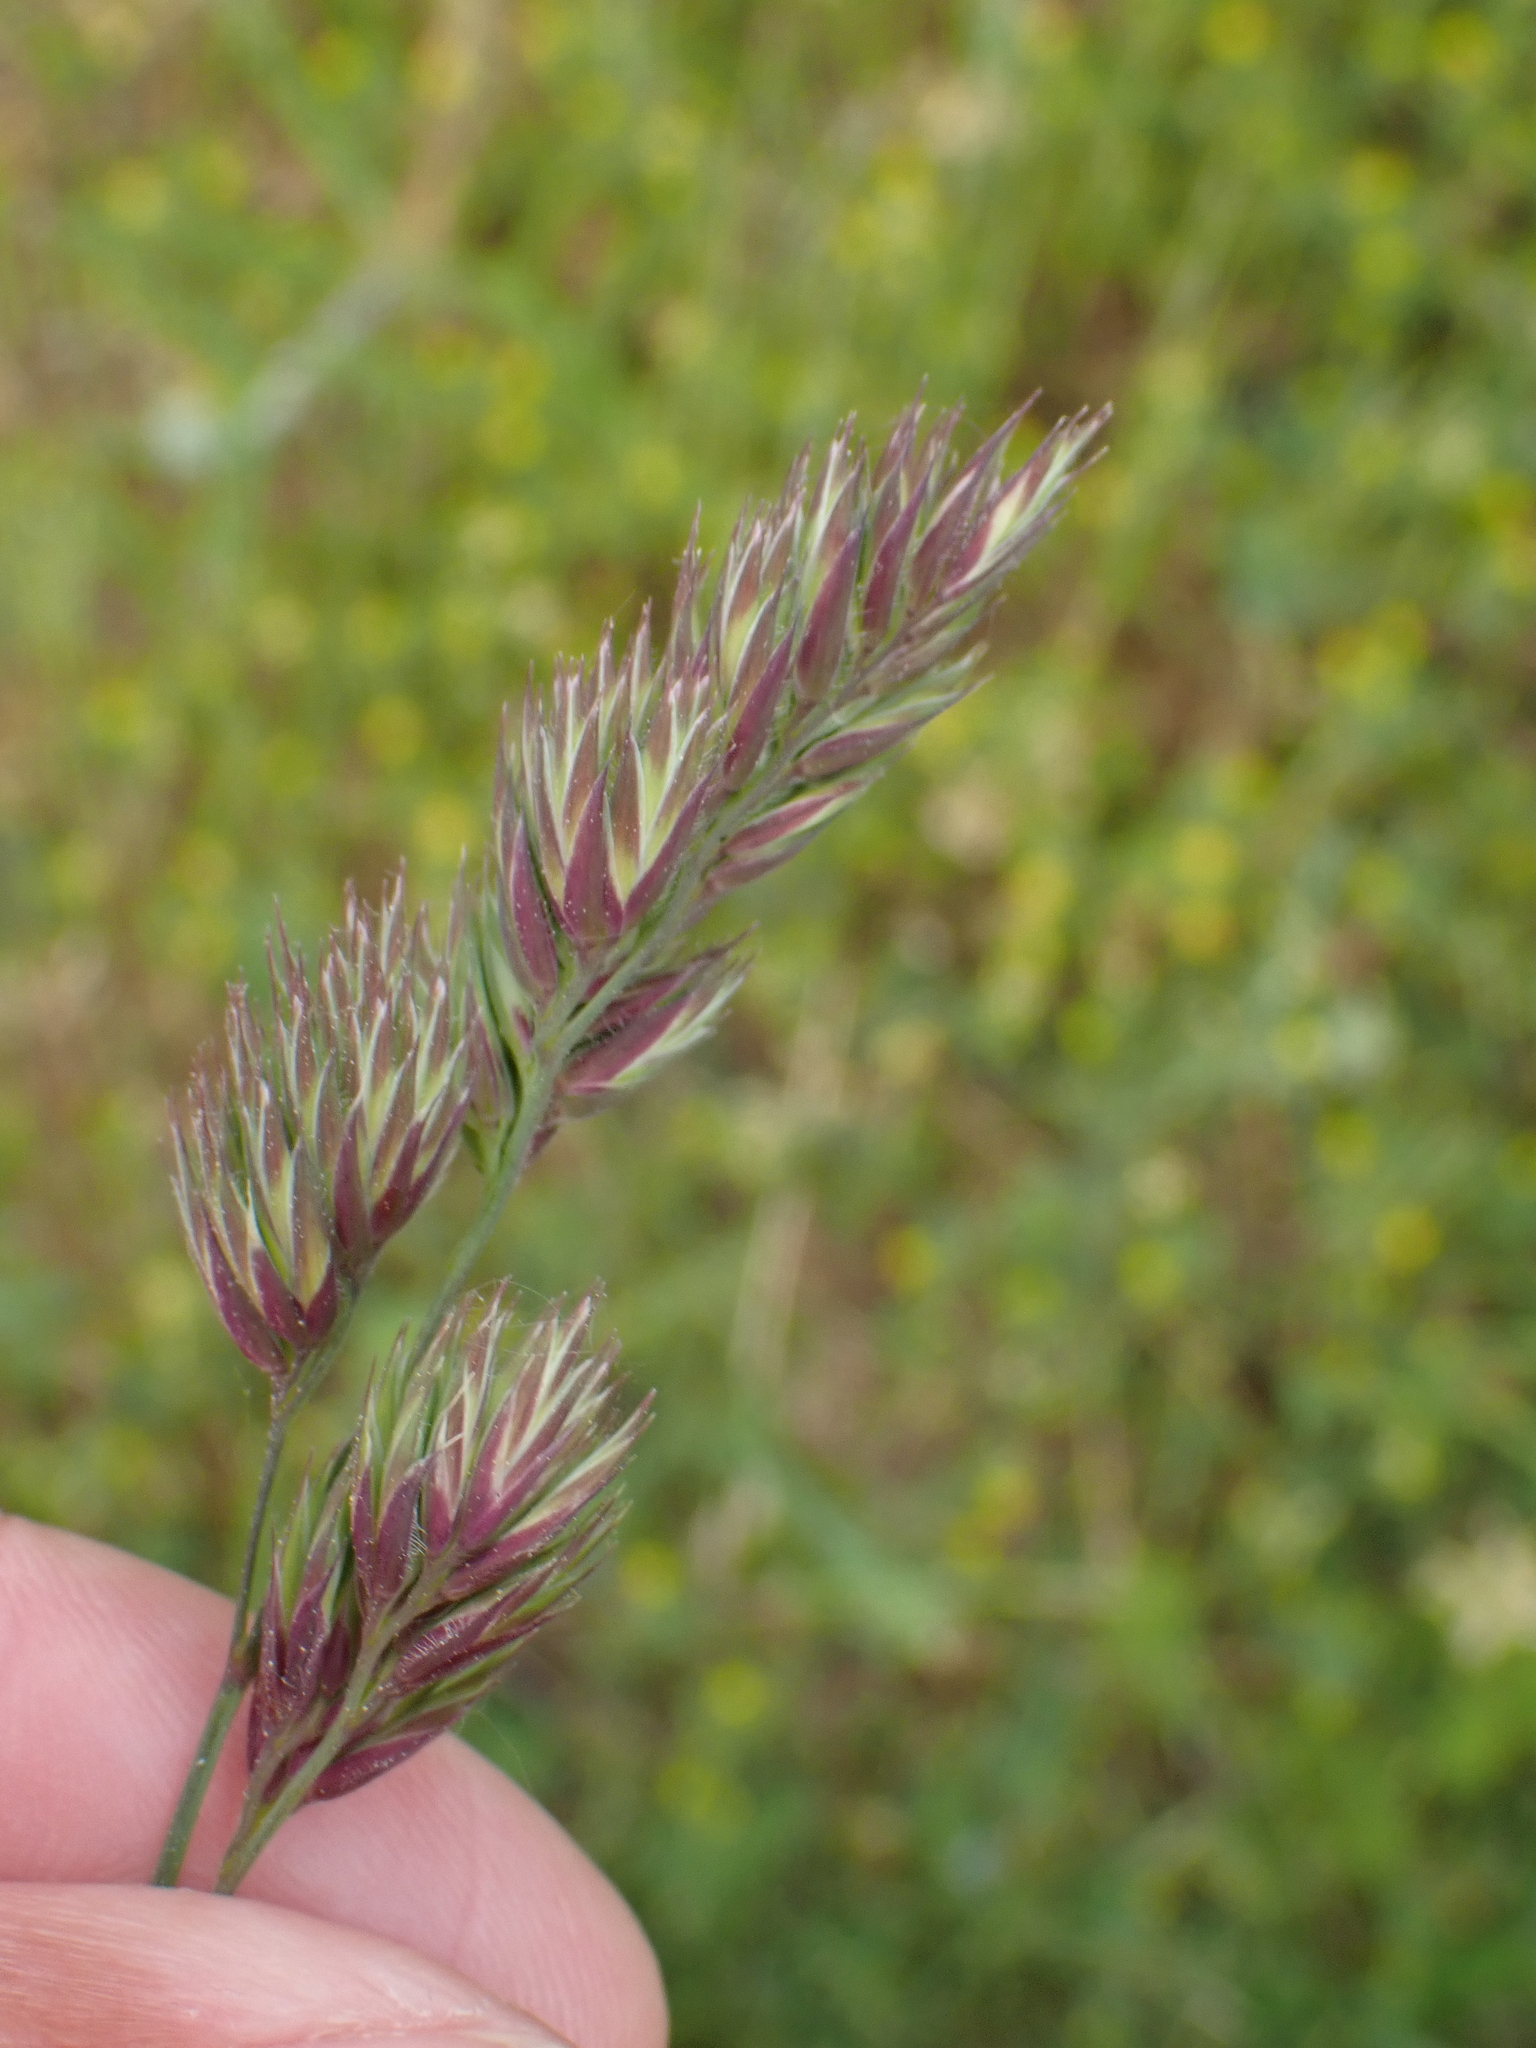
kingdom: Plantae
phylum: Tracheophyta
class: Liliopsida
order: Poales
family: Poaceae
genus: Dactylis
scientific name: Dactylis glomerata
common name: Orchardgrass
